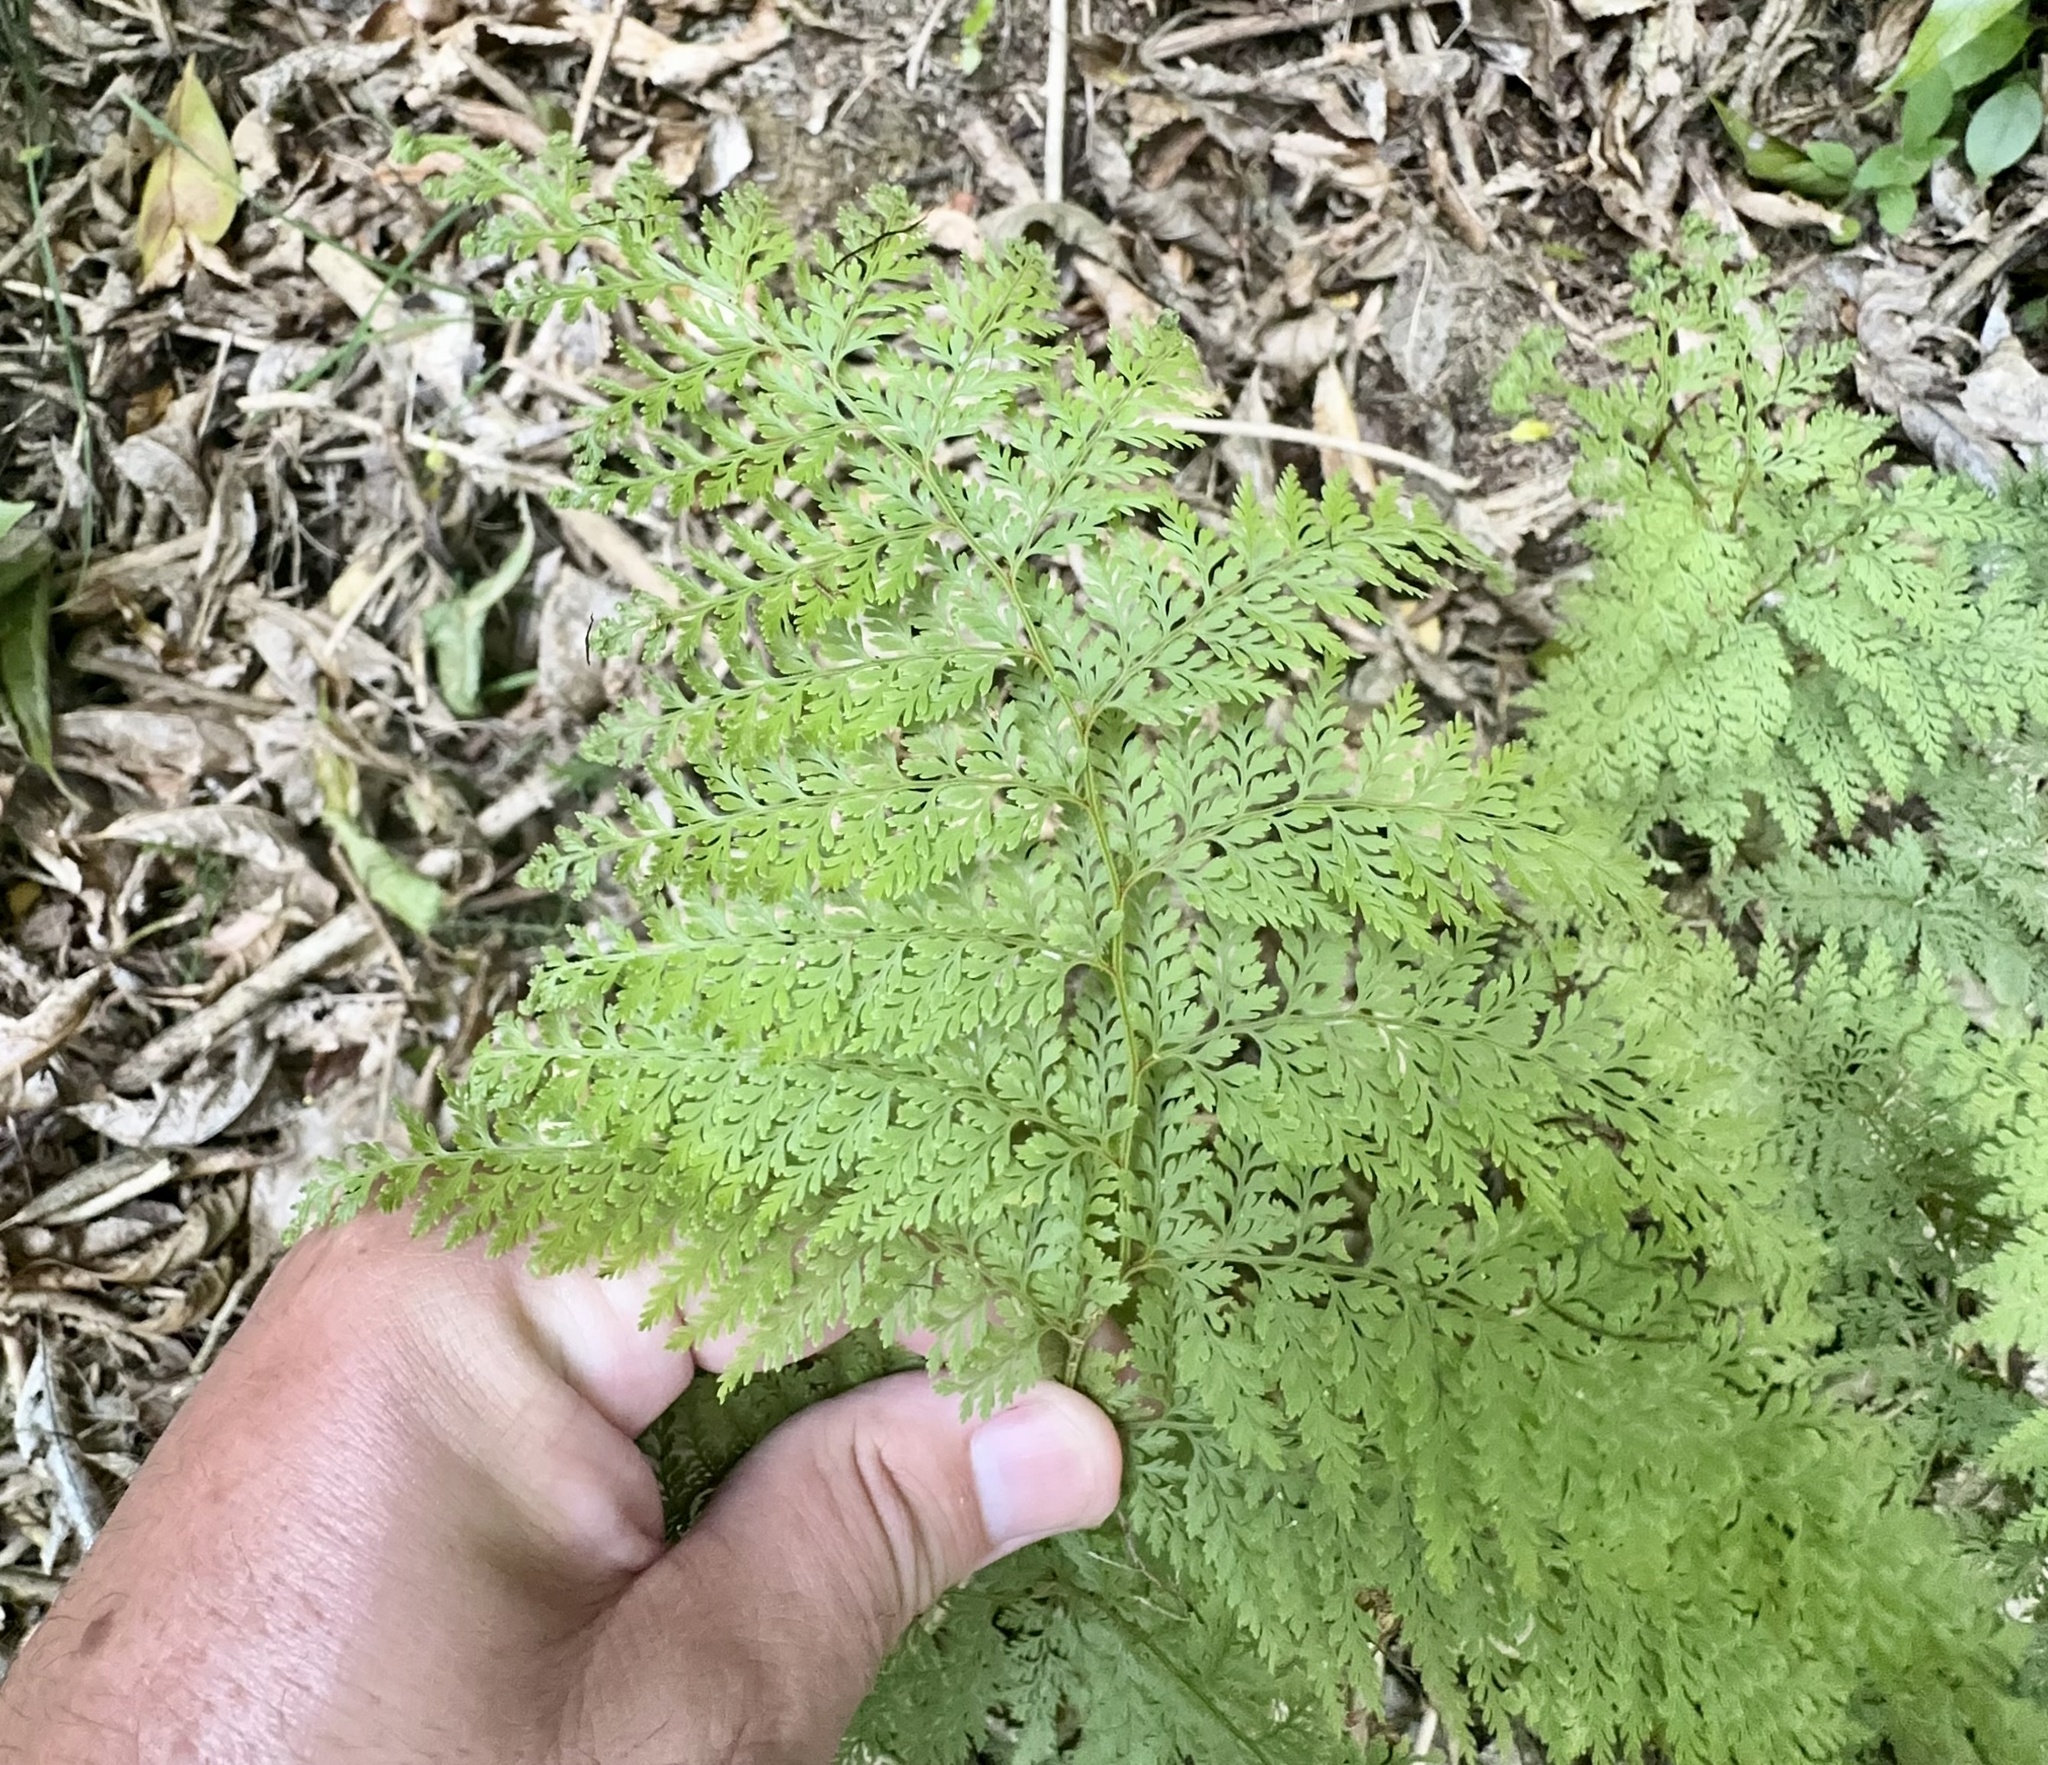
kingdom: Plantae
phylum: Tracheophyta
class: Polypodiopsida
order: Polypodiales
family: Dennstaedtiaceae
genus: Paesia
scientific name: Paesia scaberula
